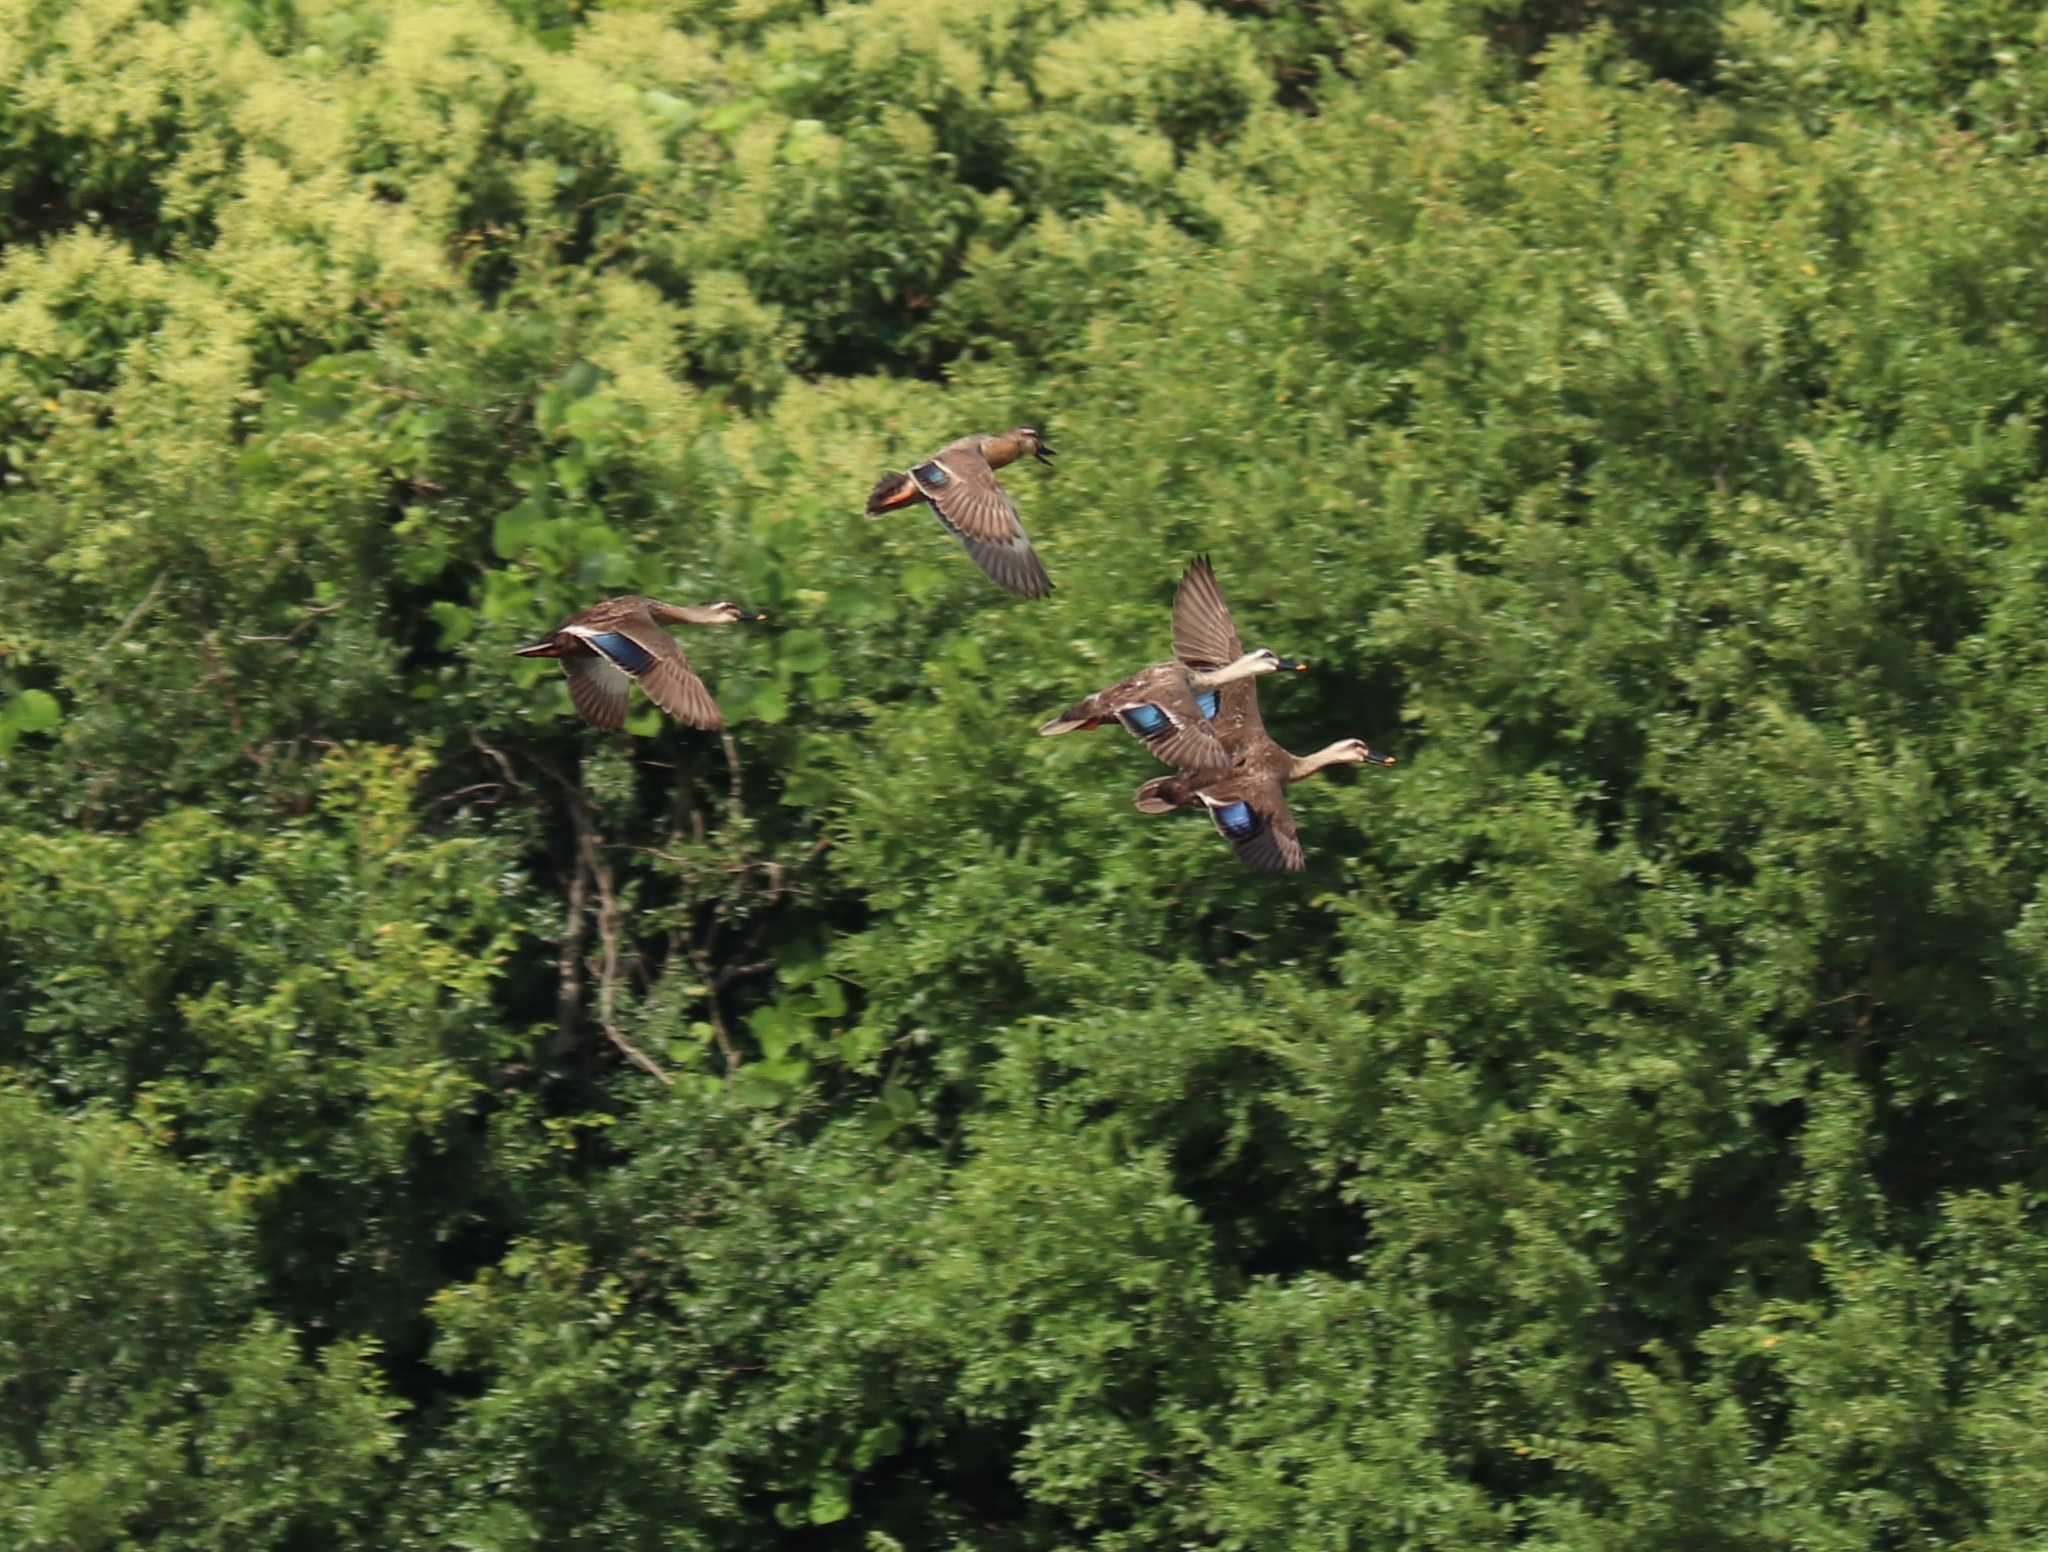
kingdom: Animalia
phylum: Chordata
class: Aves
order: Anseriformes
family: Anatidae
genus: Anas
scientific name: Anas zonorhyncha
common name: Eastern spot-billed duck
